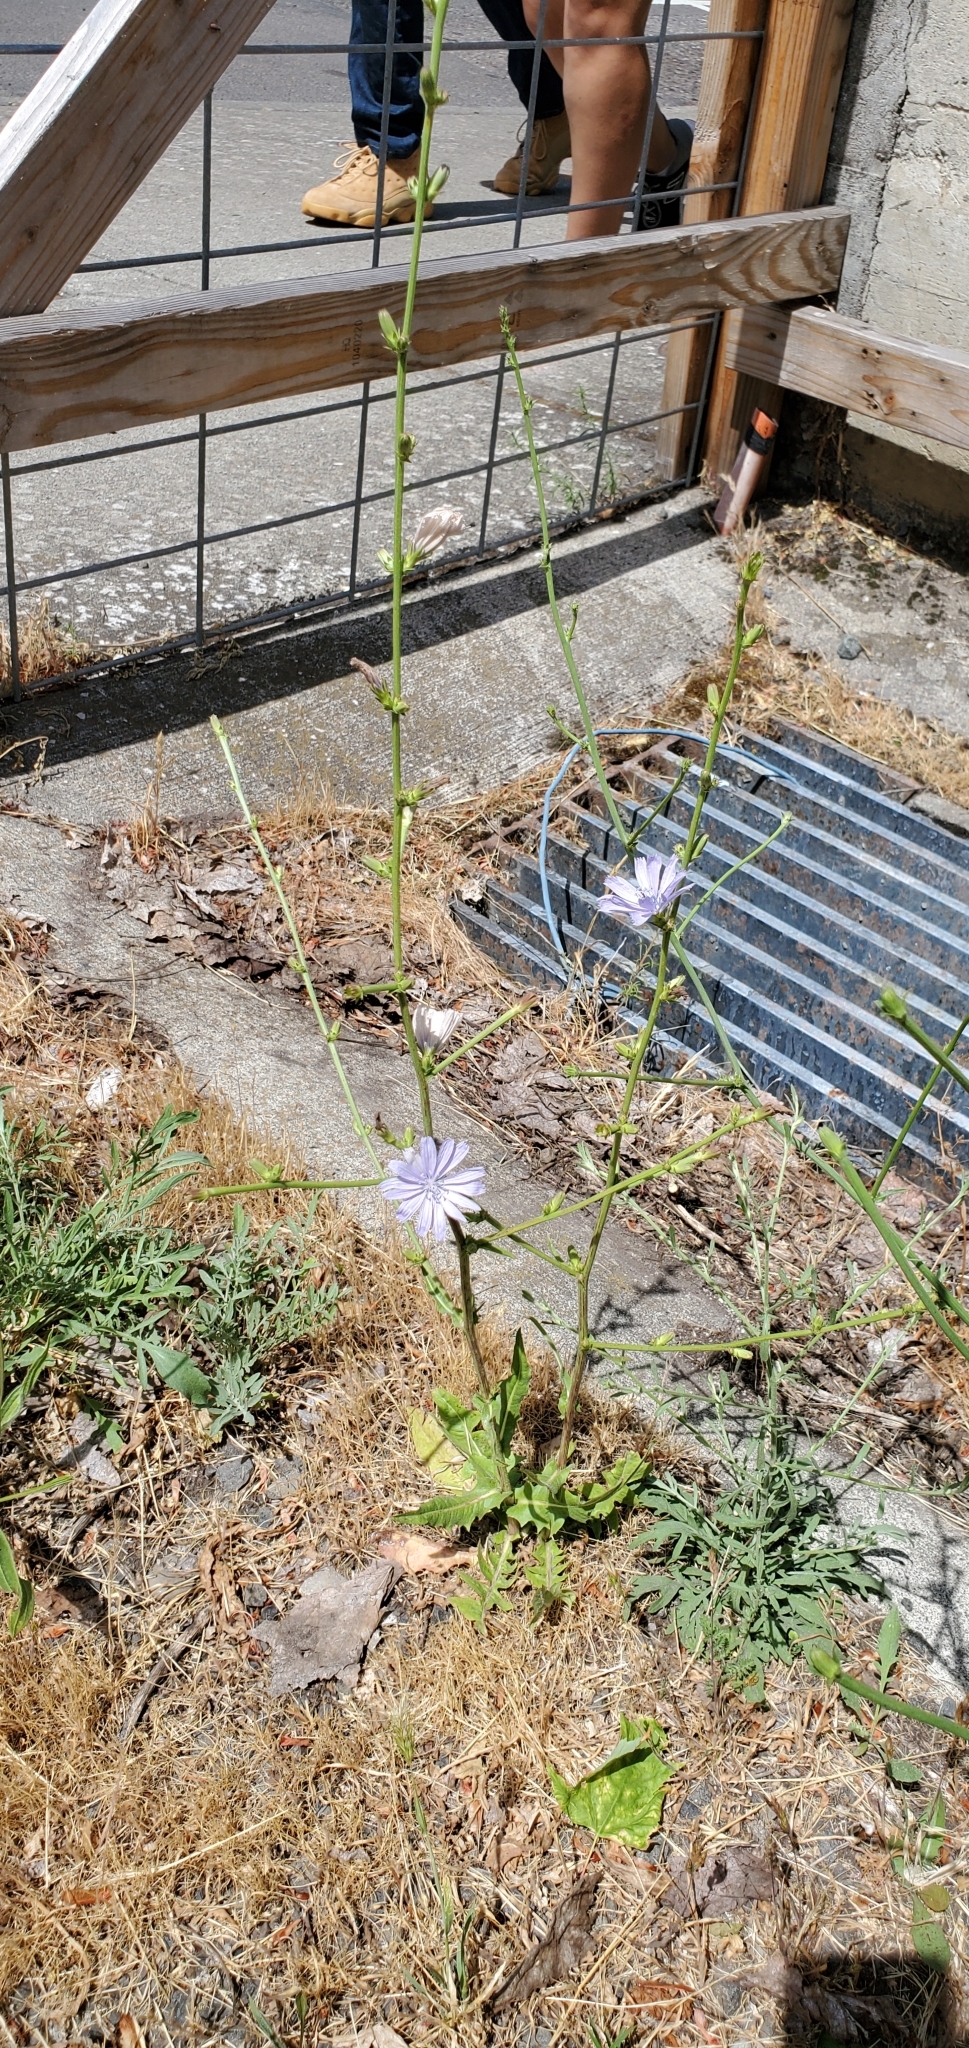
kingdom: Plantae
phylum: Tracheophyta
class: Magnoliopsida
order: Asterales
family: Asteraceae
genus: Cichorium
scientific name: Cichorium intybus
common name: Chicory
